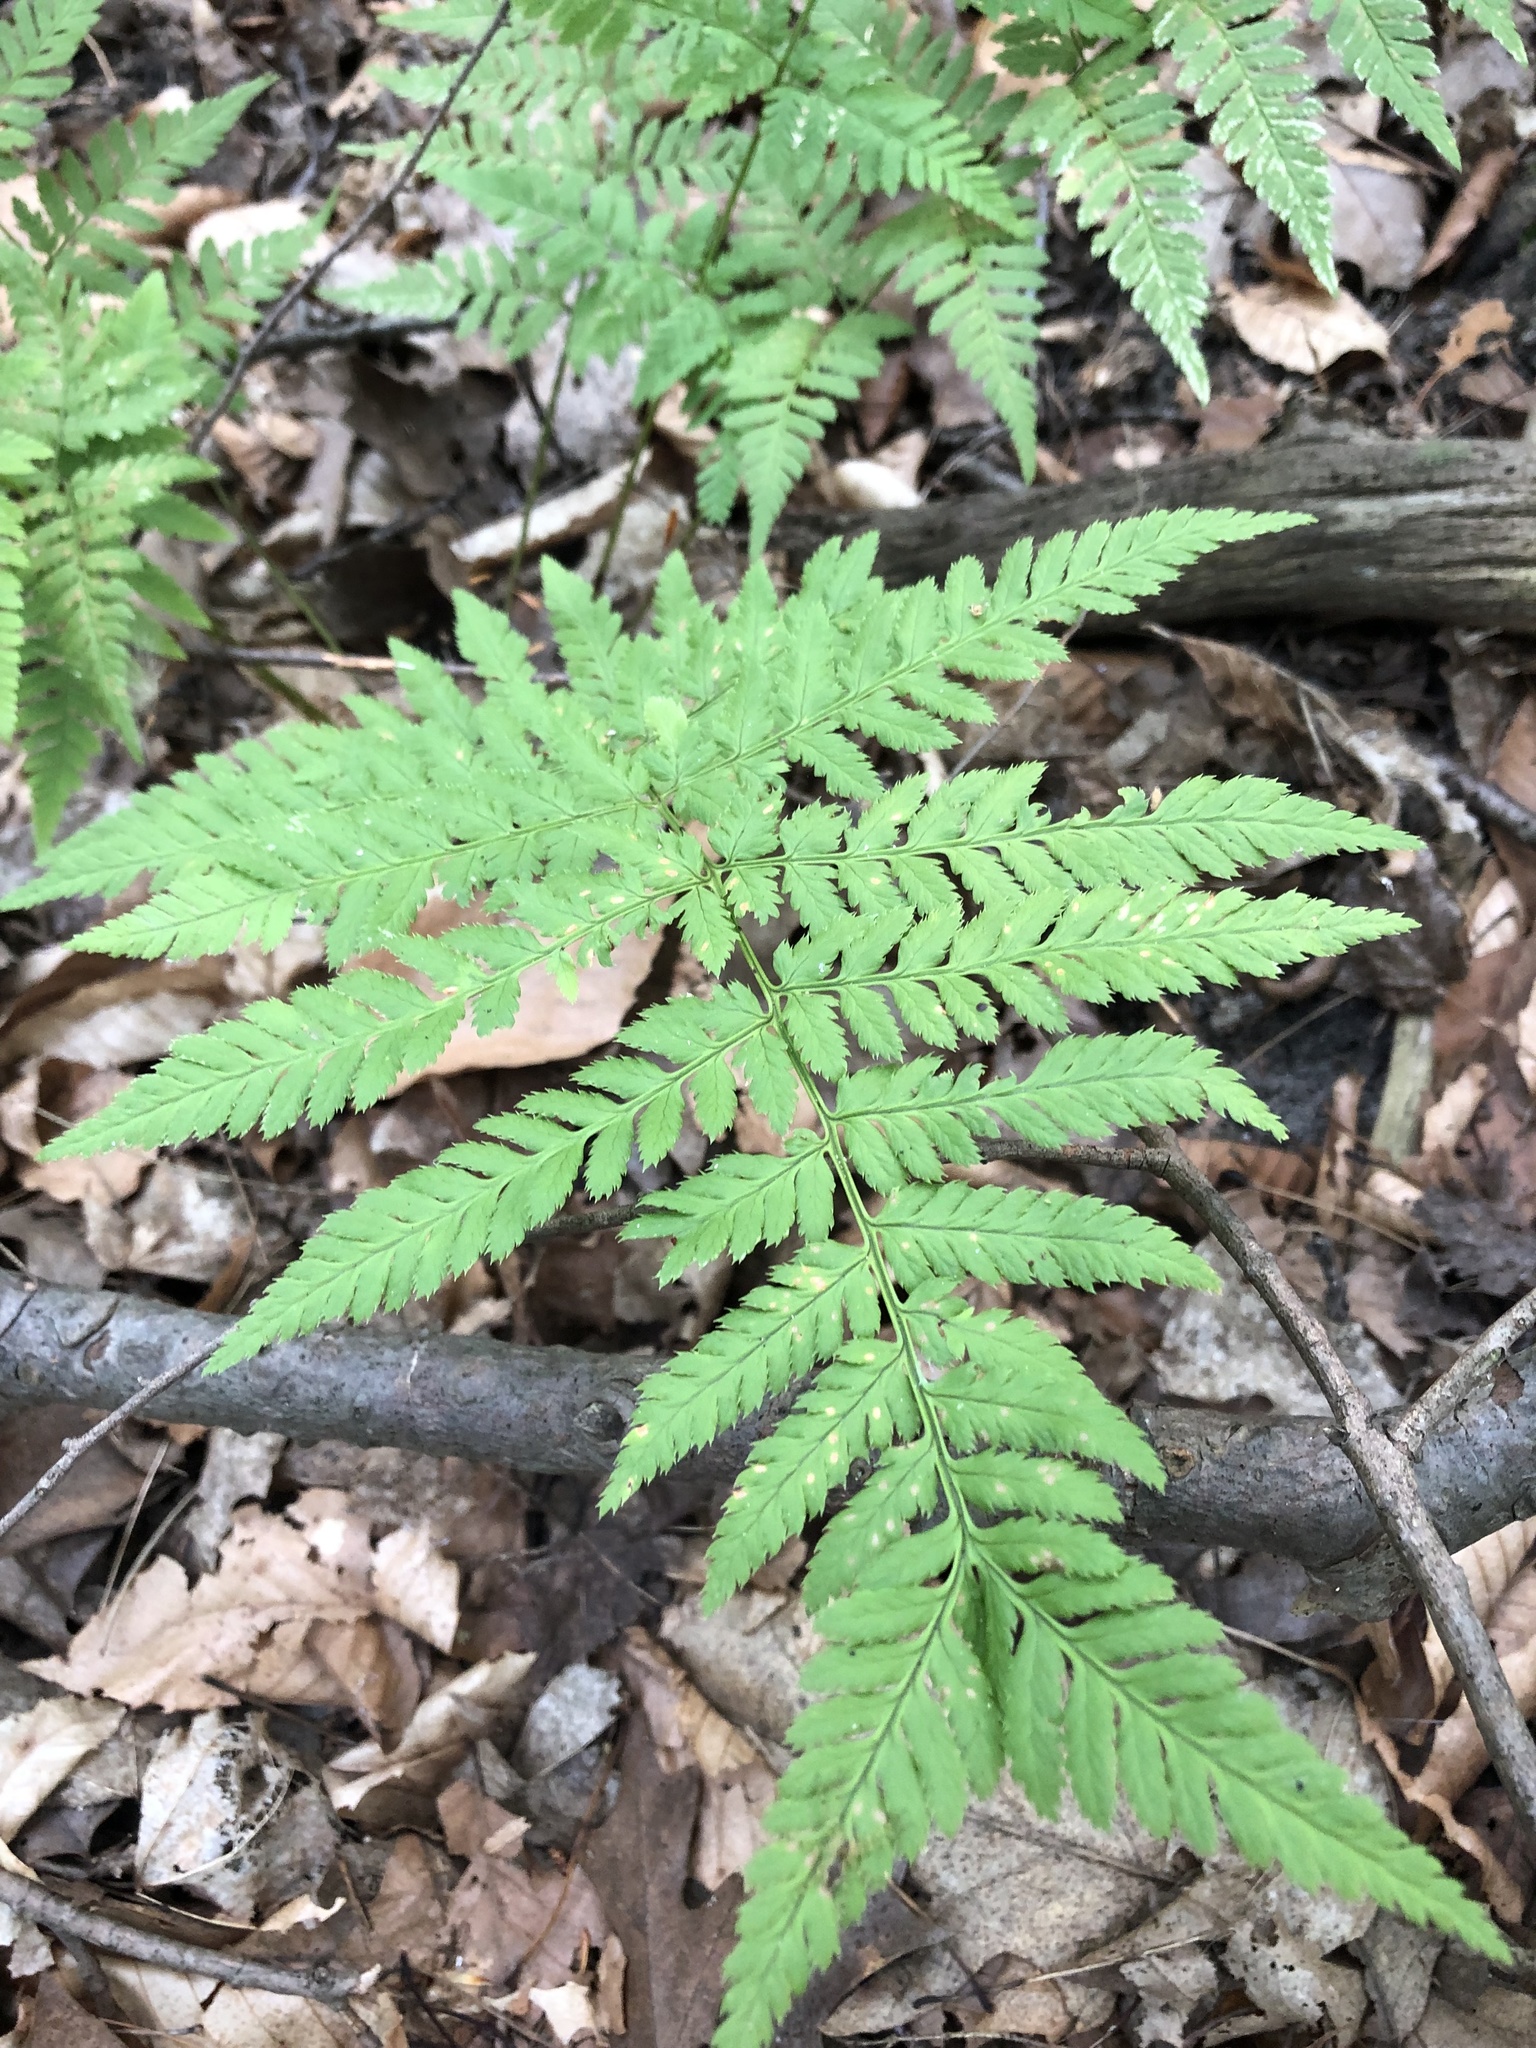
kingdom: Plantae
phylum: Tracheophyta
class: Polypodiopsida
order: Polypodiales
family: Dryopteridaceae
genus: Dryopteris
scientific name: Dryopteris carthusiana
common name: Narrow buckler-fern
